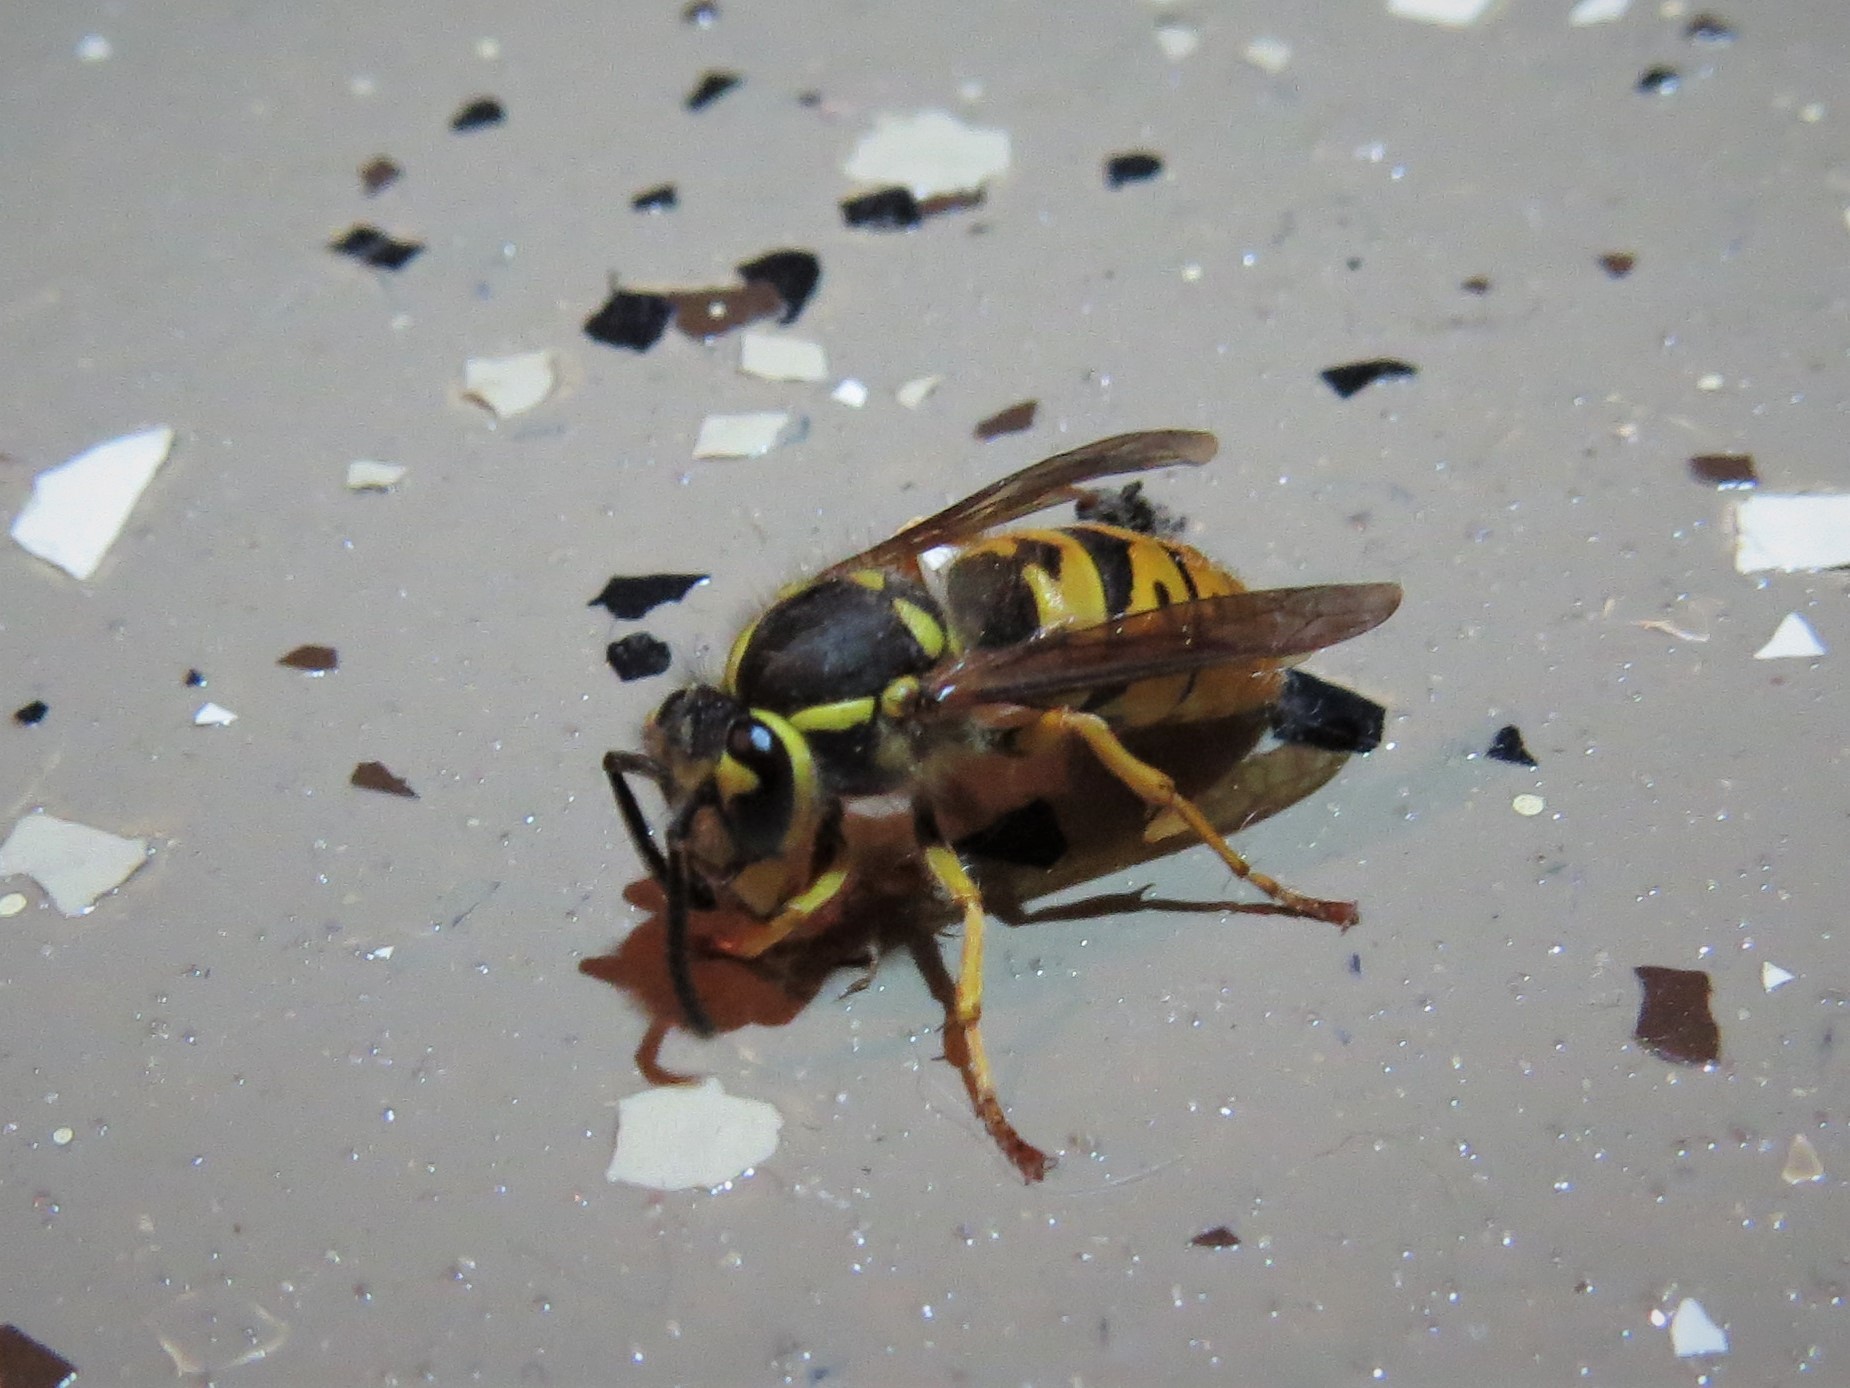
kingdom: Animalia
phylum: Arthropoda
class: Insecta
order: Hymenoptera
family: Vespidae
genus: Vespula
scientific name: Vespula maculifrons
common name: Eastern yellowjacket
